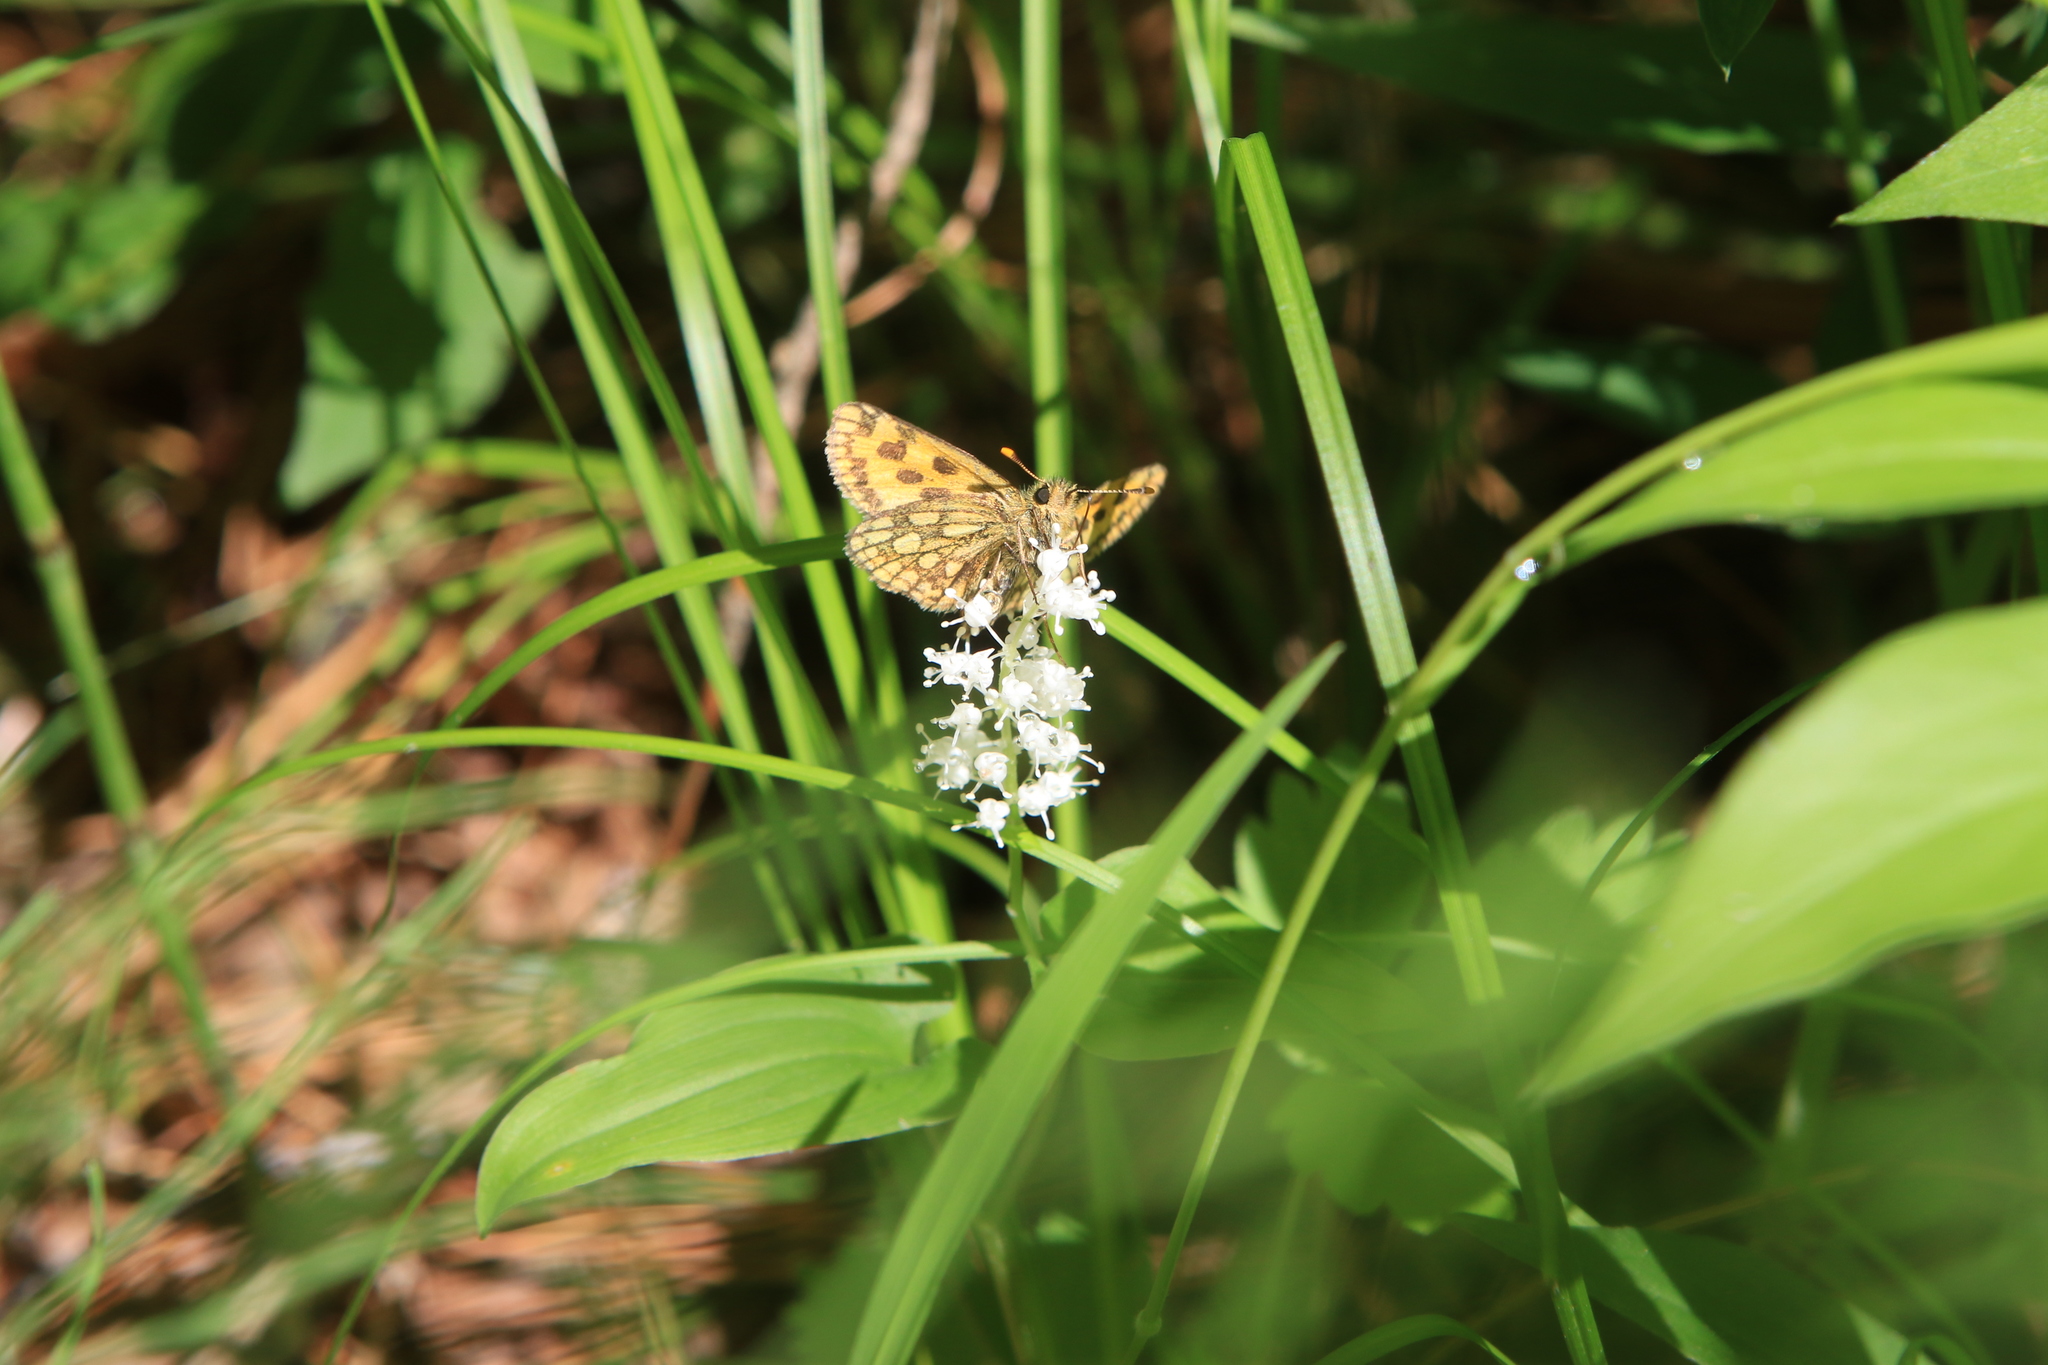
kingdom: Plantae
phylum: Tracheophyta
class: Liliopsida
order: Asparagales
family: Asparagaceae
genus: Maianthemum
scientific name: Maianthemum bifolium
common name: May lily
